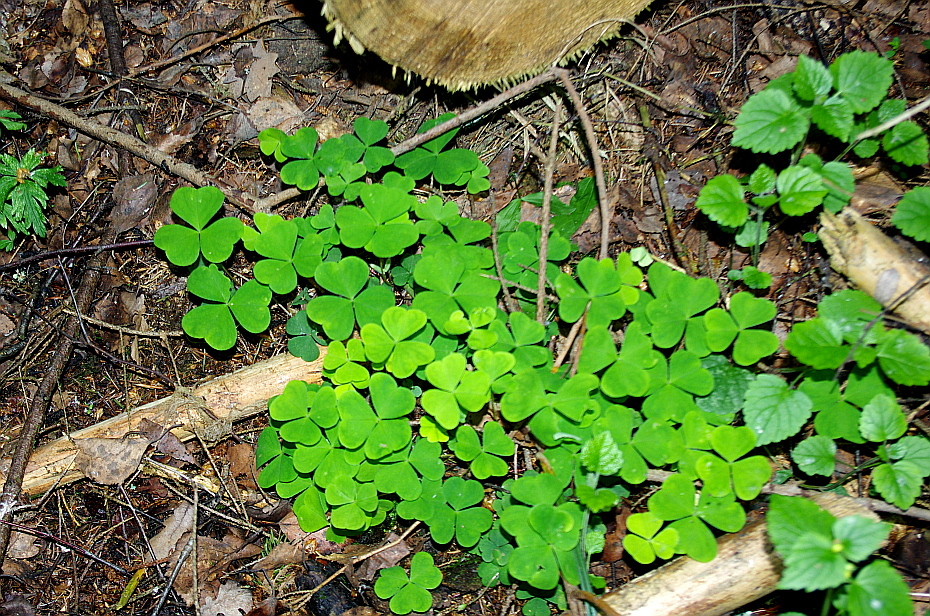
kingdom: Plantae
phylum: Tracheophyta
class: Magnoliopsida
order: Oxalidales
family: Oxalidaceae
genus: Oxalis
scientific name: Oxalis acetosella
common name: Wood-sorrel
